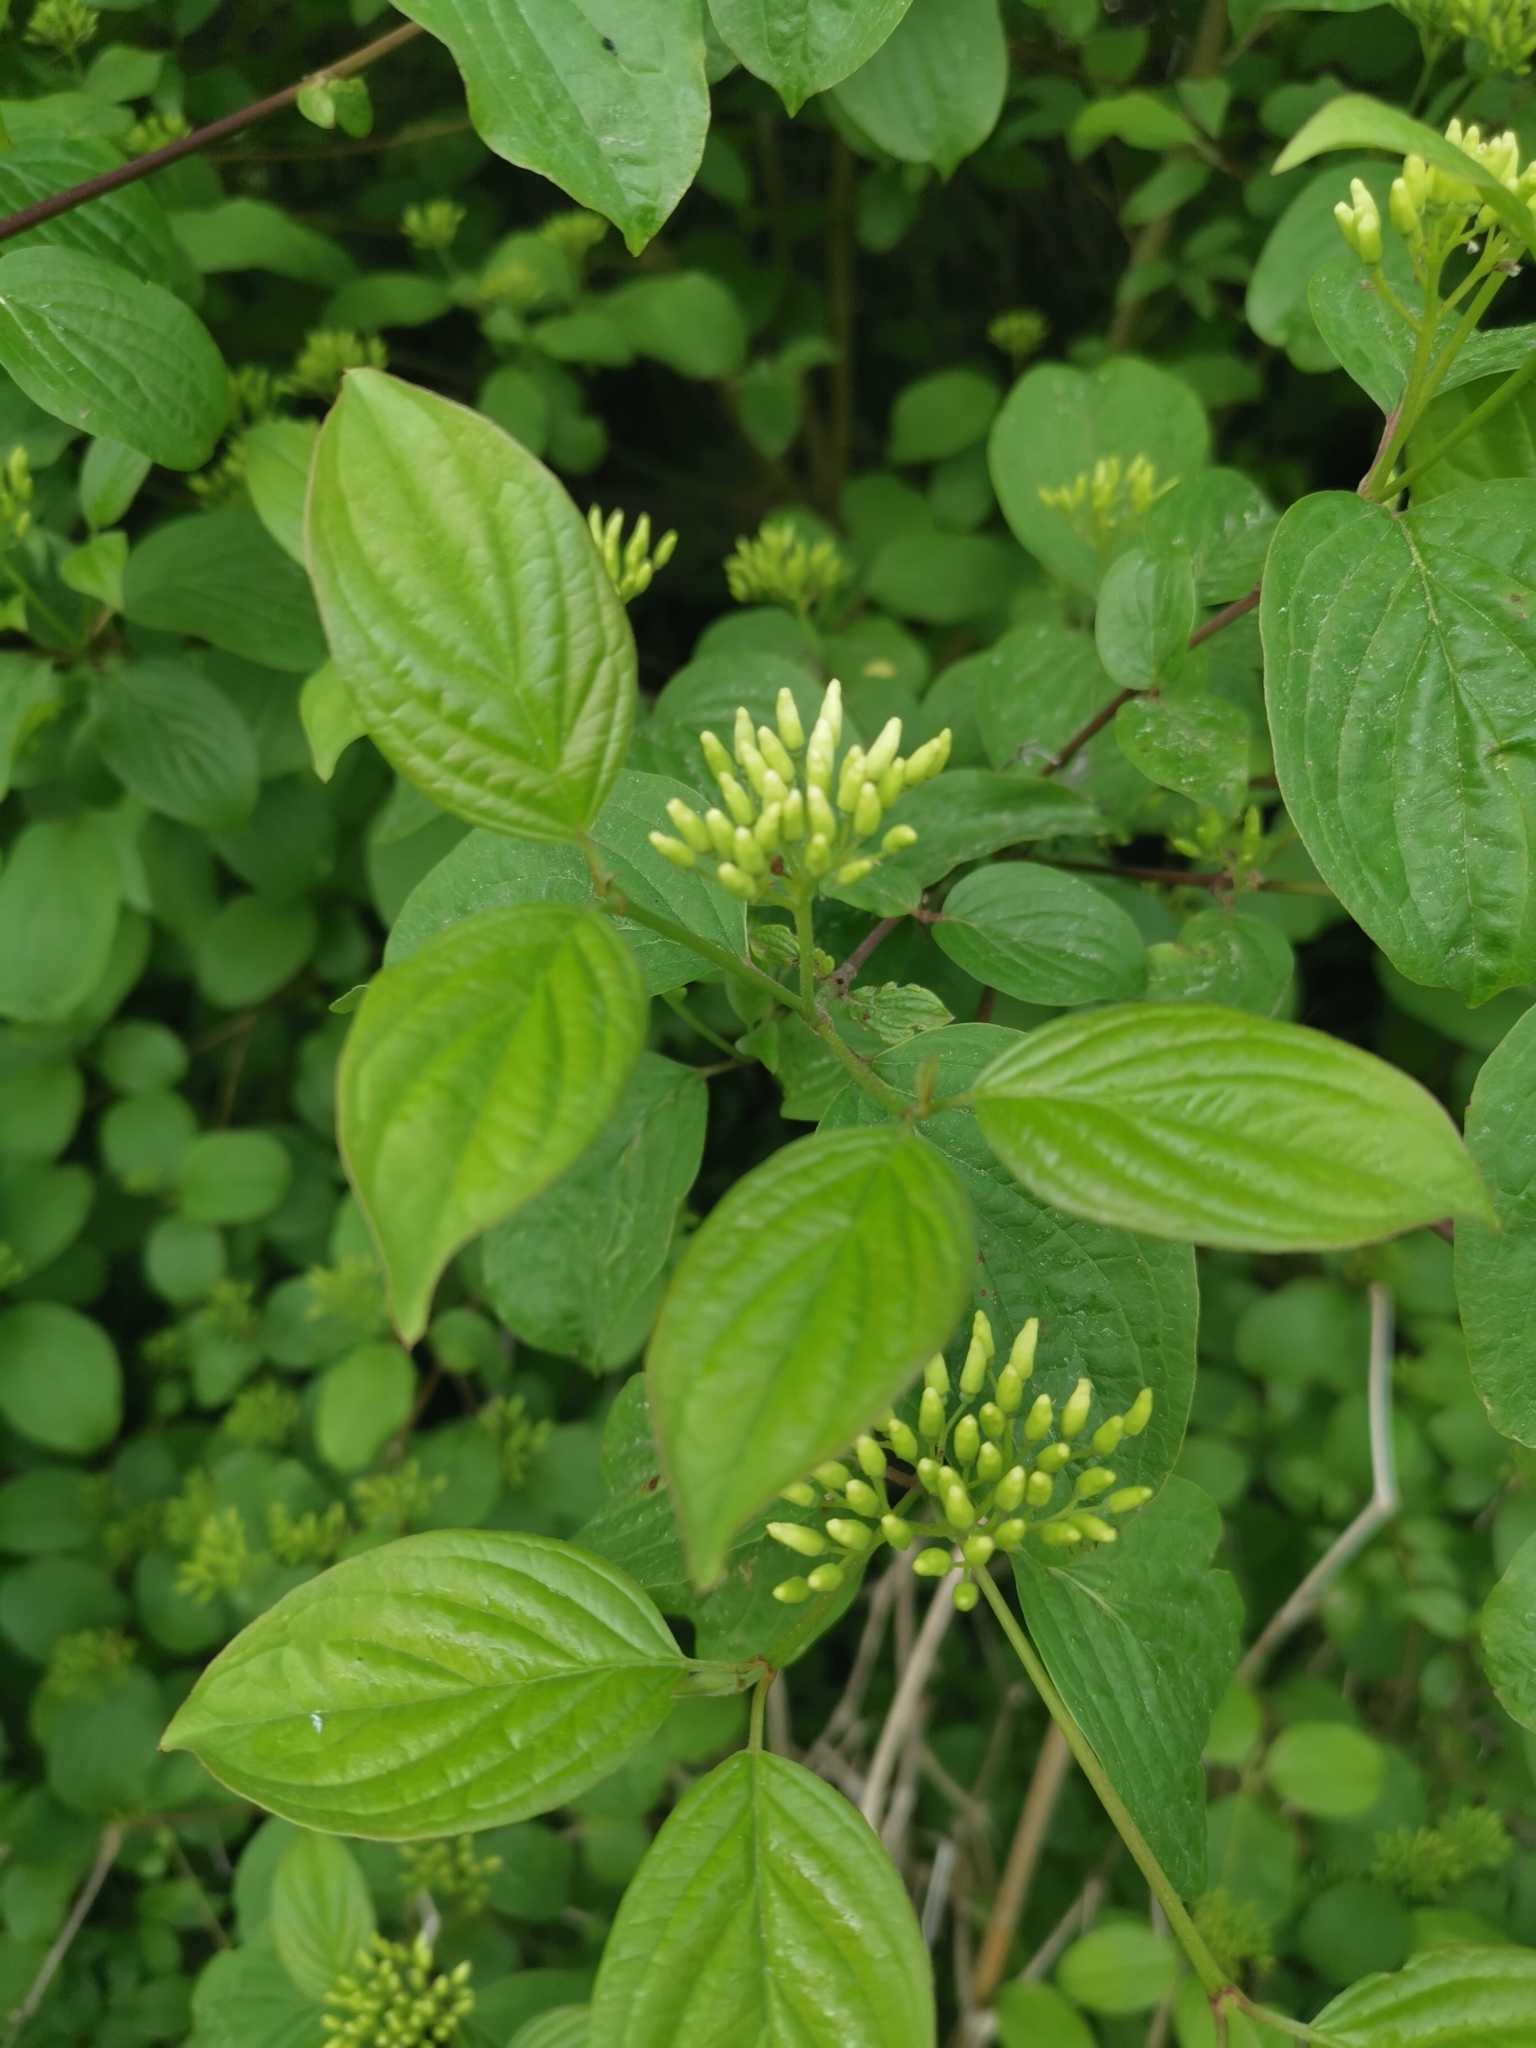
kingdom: Plantae
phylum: Tracheophyta
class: Magnoliopsida
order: Cornales
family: Cornaceae
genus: Cornus
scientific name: Cornus sanguinea
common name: Dogwood
